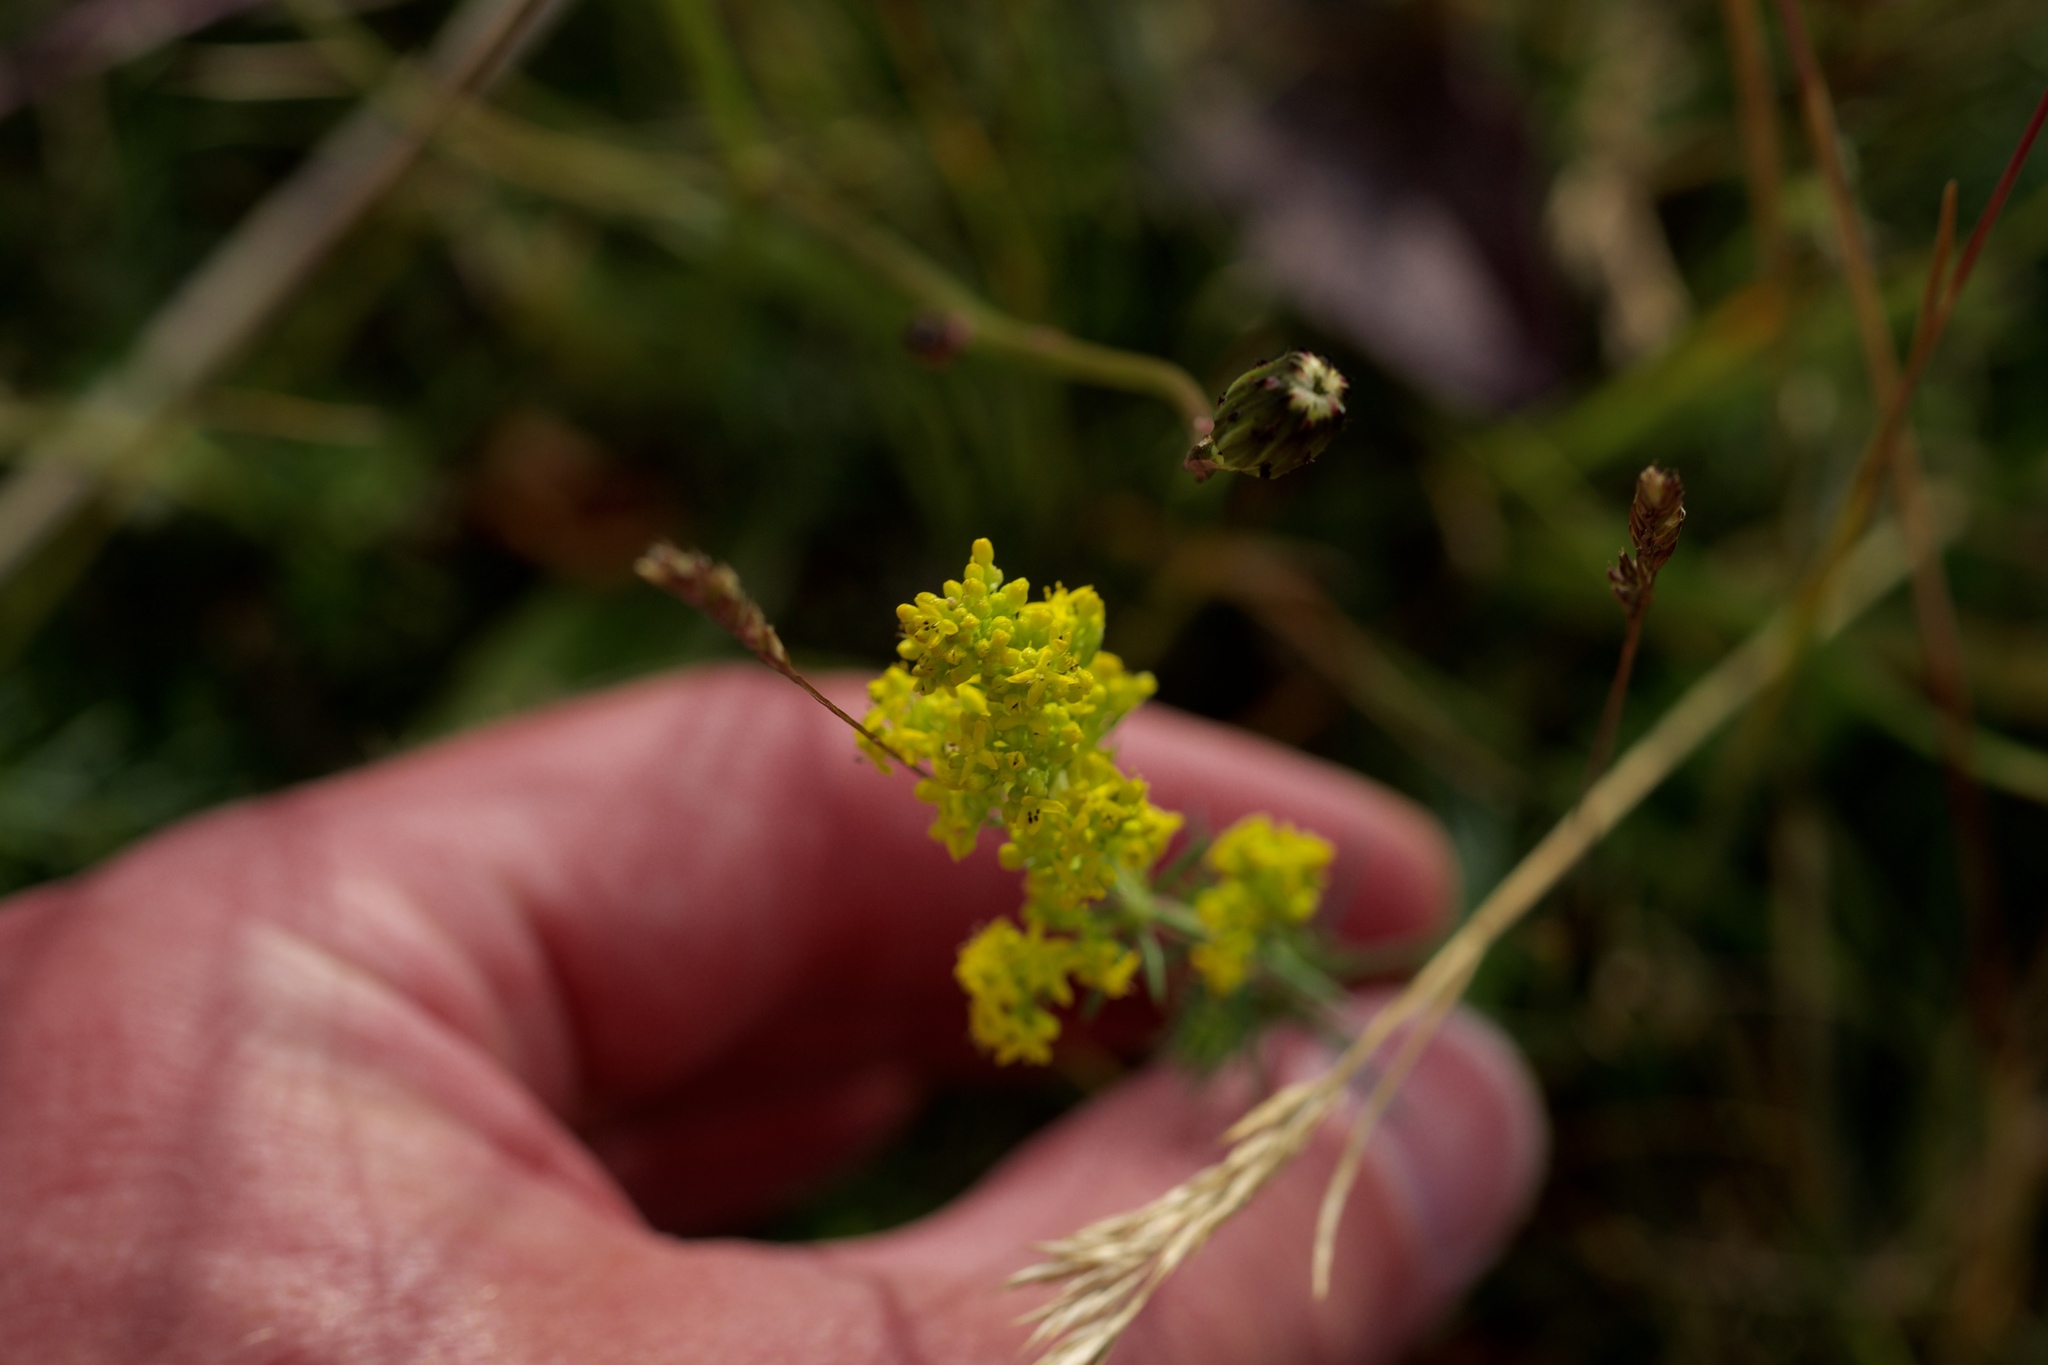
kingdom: Plantae
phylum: Tracheophyta
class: Magnoliopsida
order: Gentianales
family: Rubiaceae
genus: Galium
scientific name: Galium verum
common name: Lady's bedstraw
